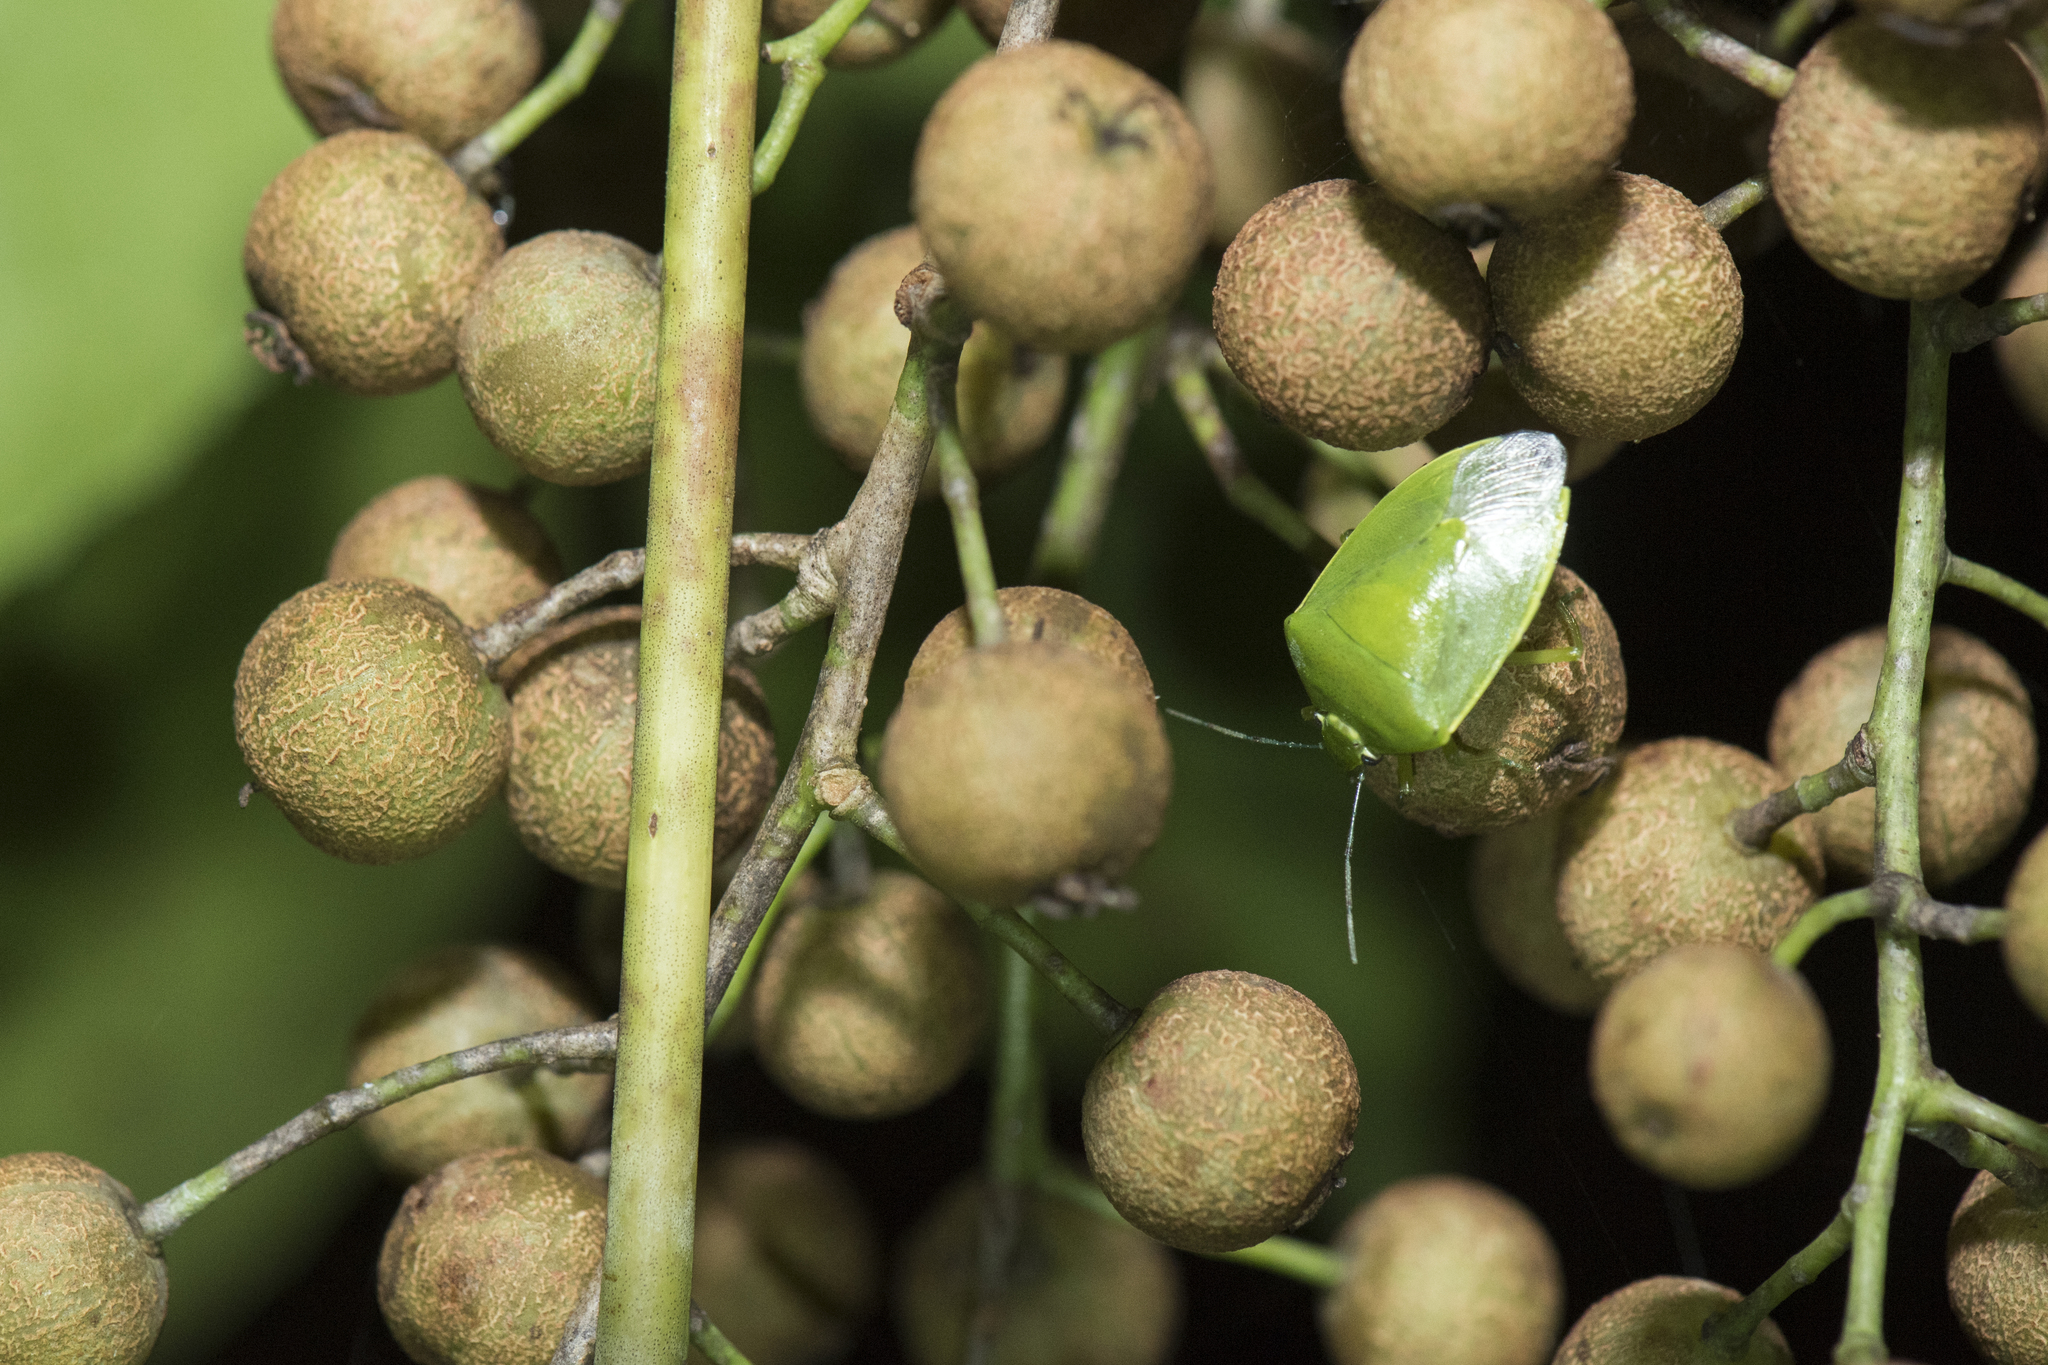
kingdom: Animalia
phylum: Arthropoda
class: Insecta
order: Hemiptera
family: Pentatomidae
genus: Glaucias
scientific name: Glaucias subpunctatus
